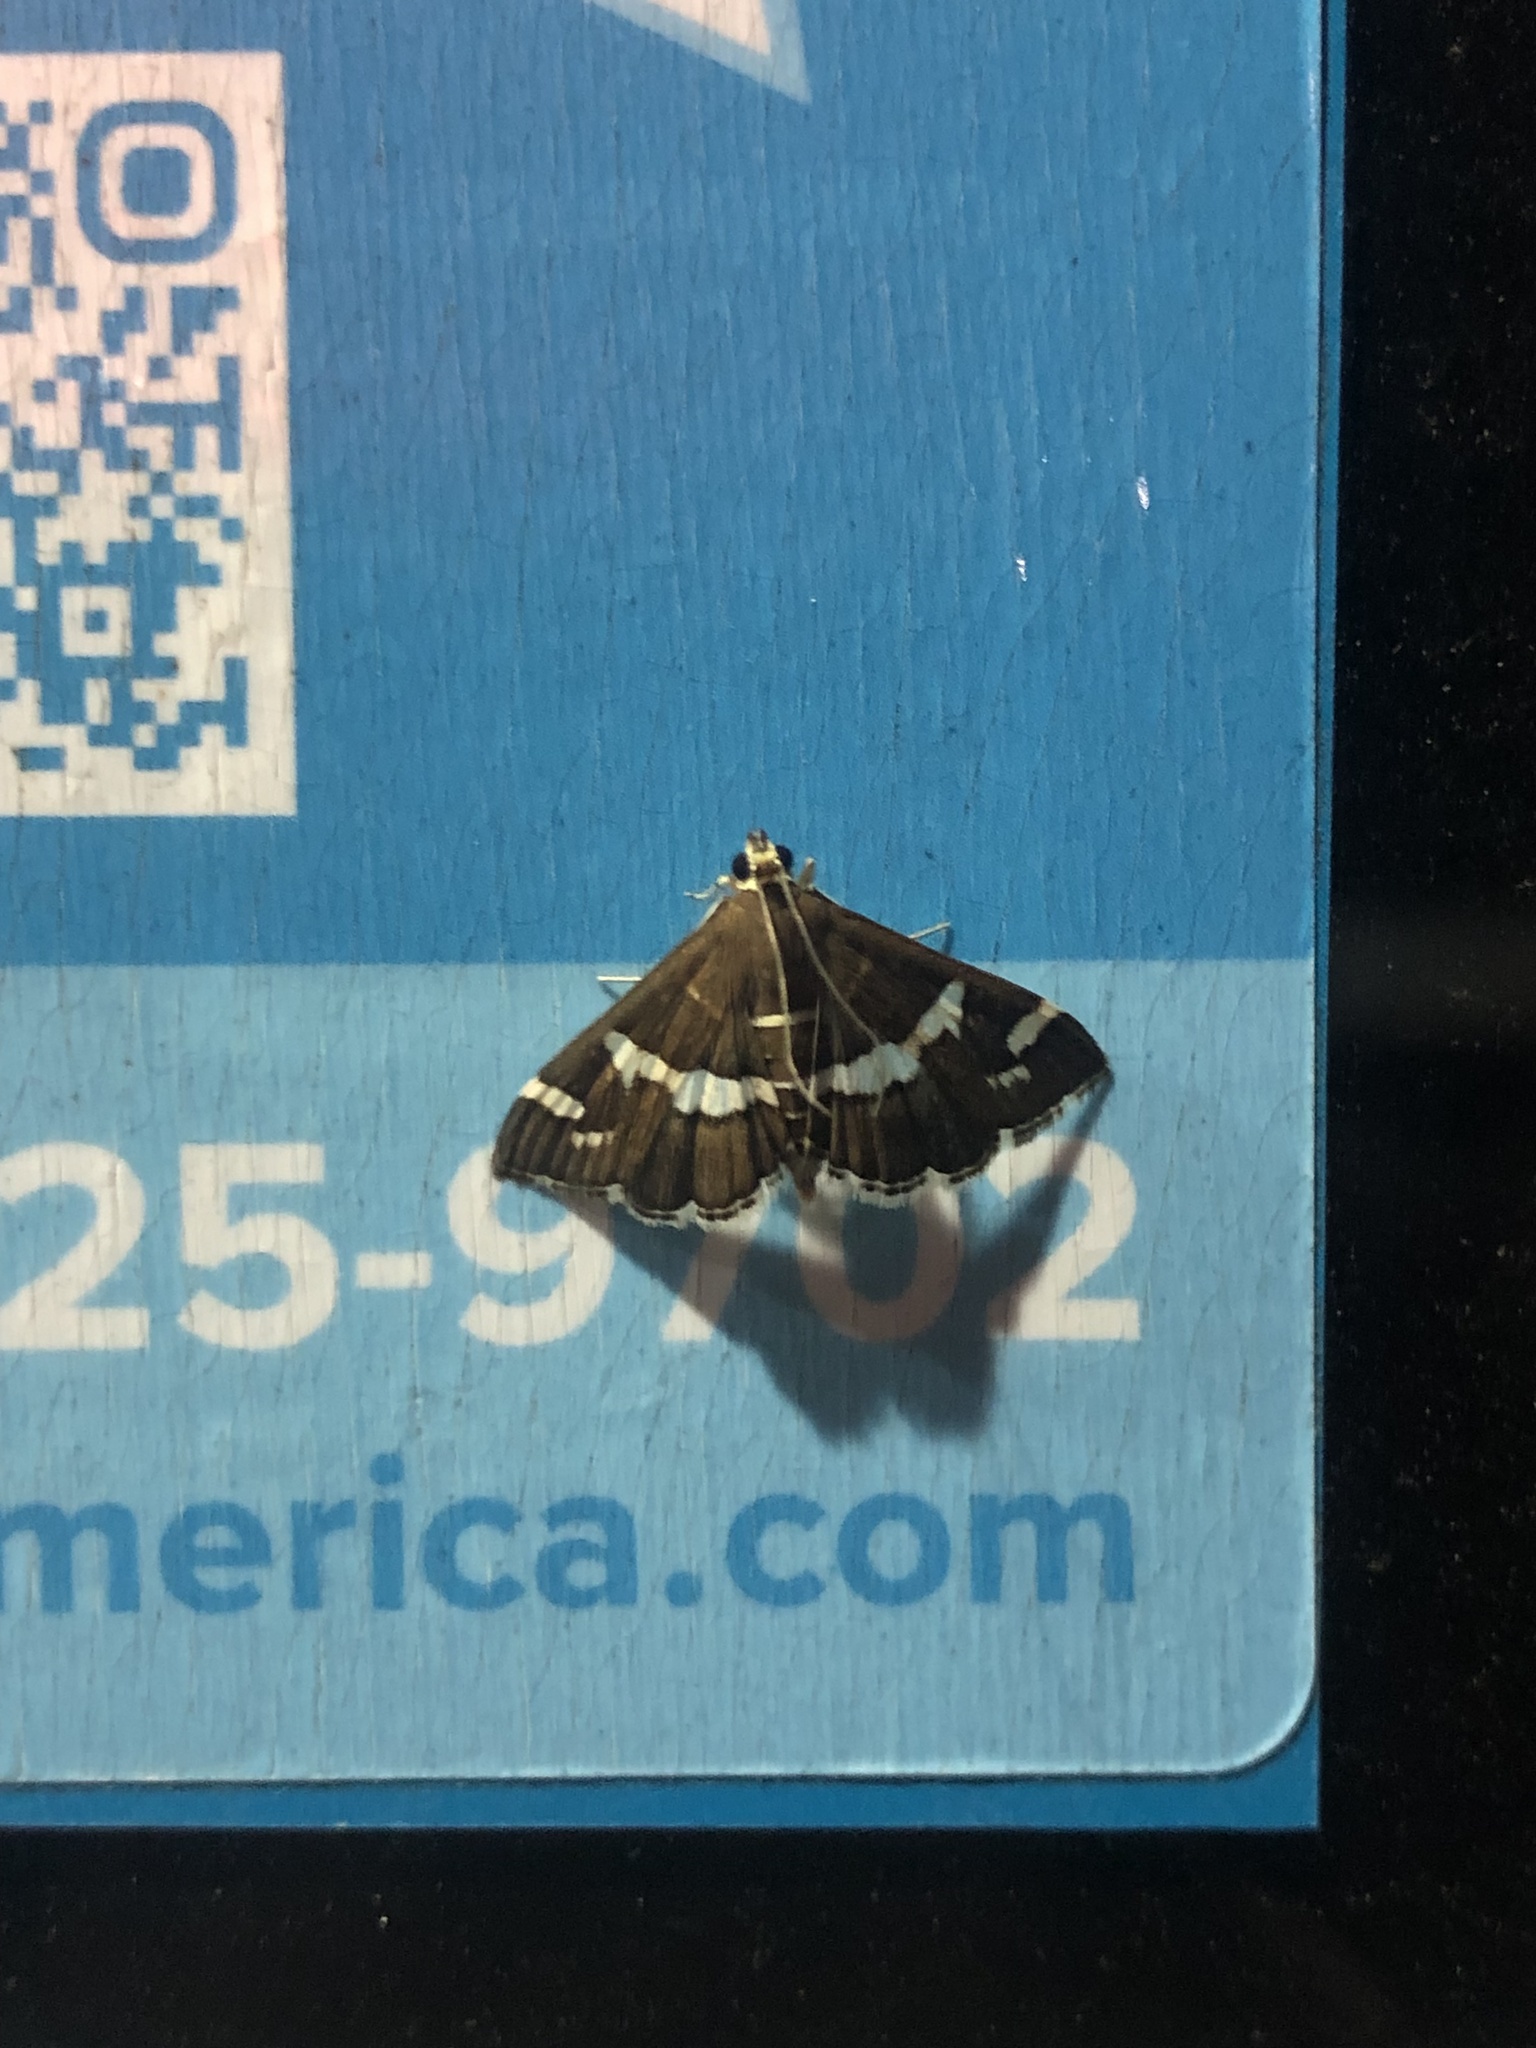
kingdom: Animalia
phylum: Arthropoda
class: Insecta
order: Lepidoptera
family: Crambidae
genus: Spoladea
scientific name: Spoladea recurvalis
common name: Beet webworm moth
